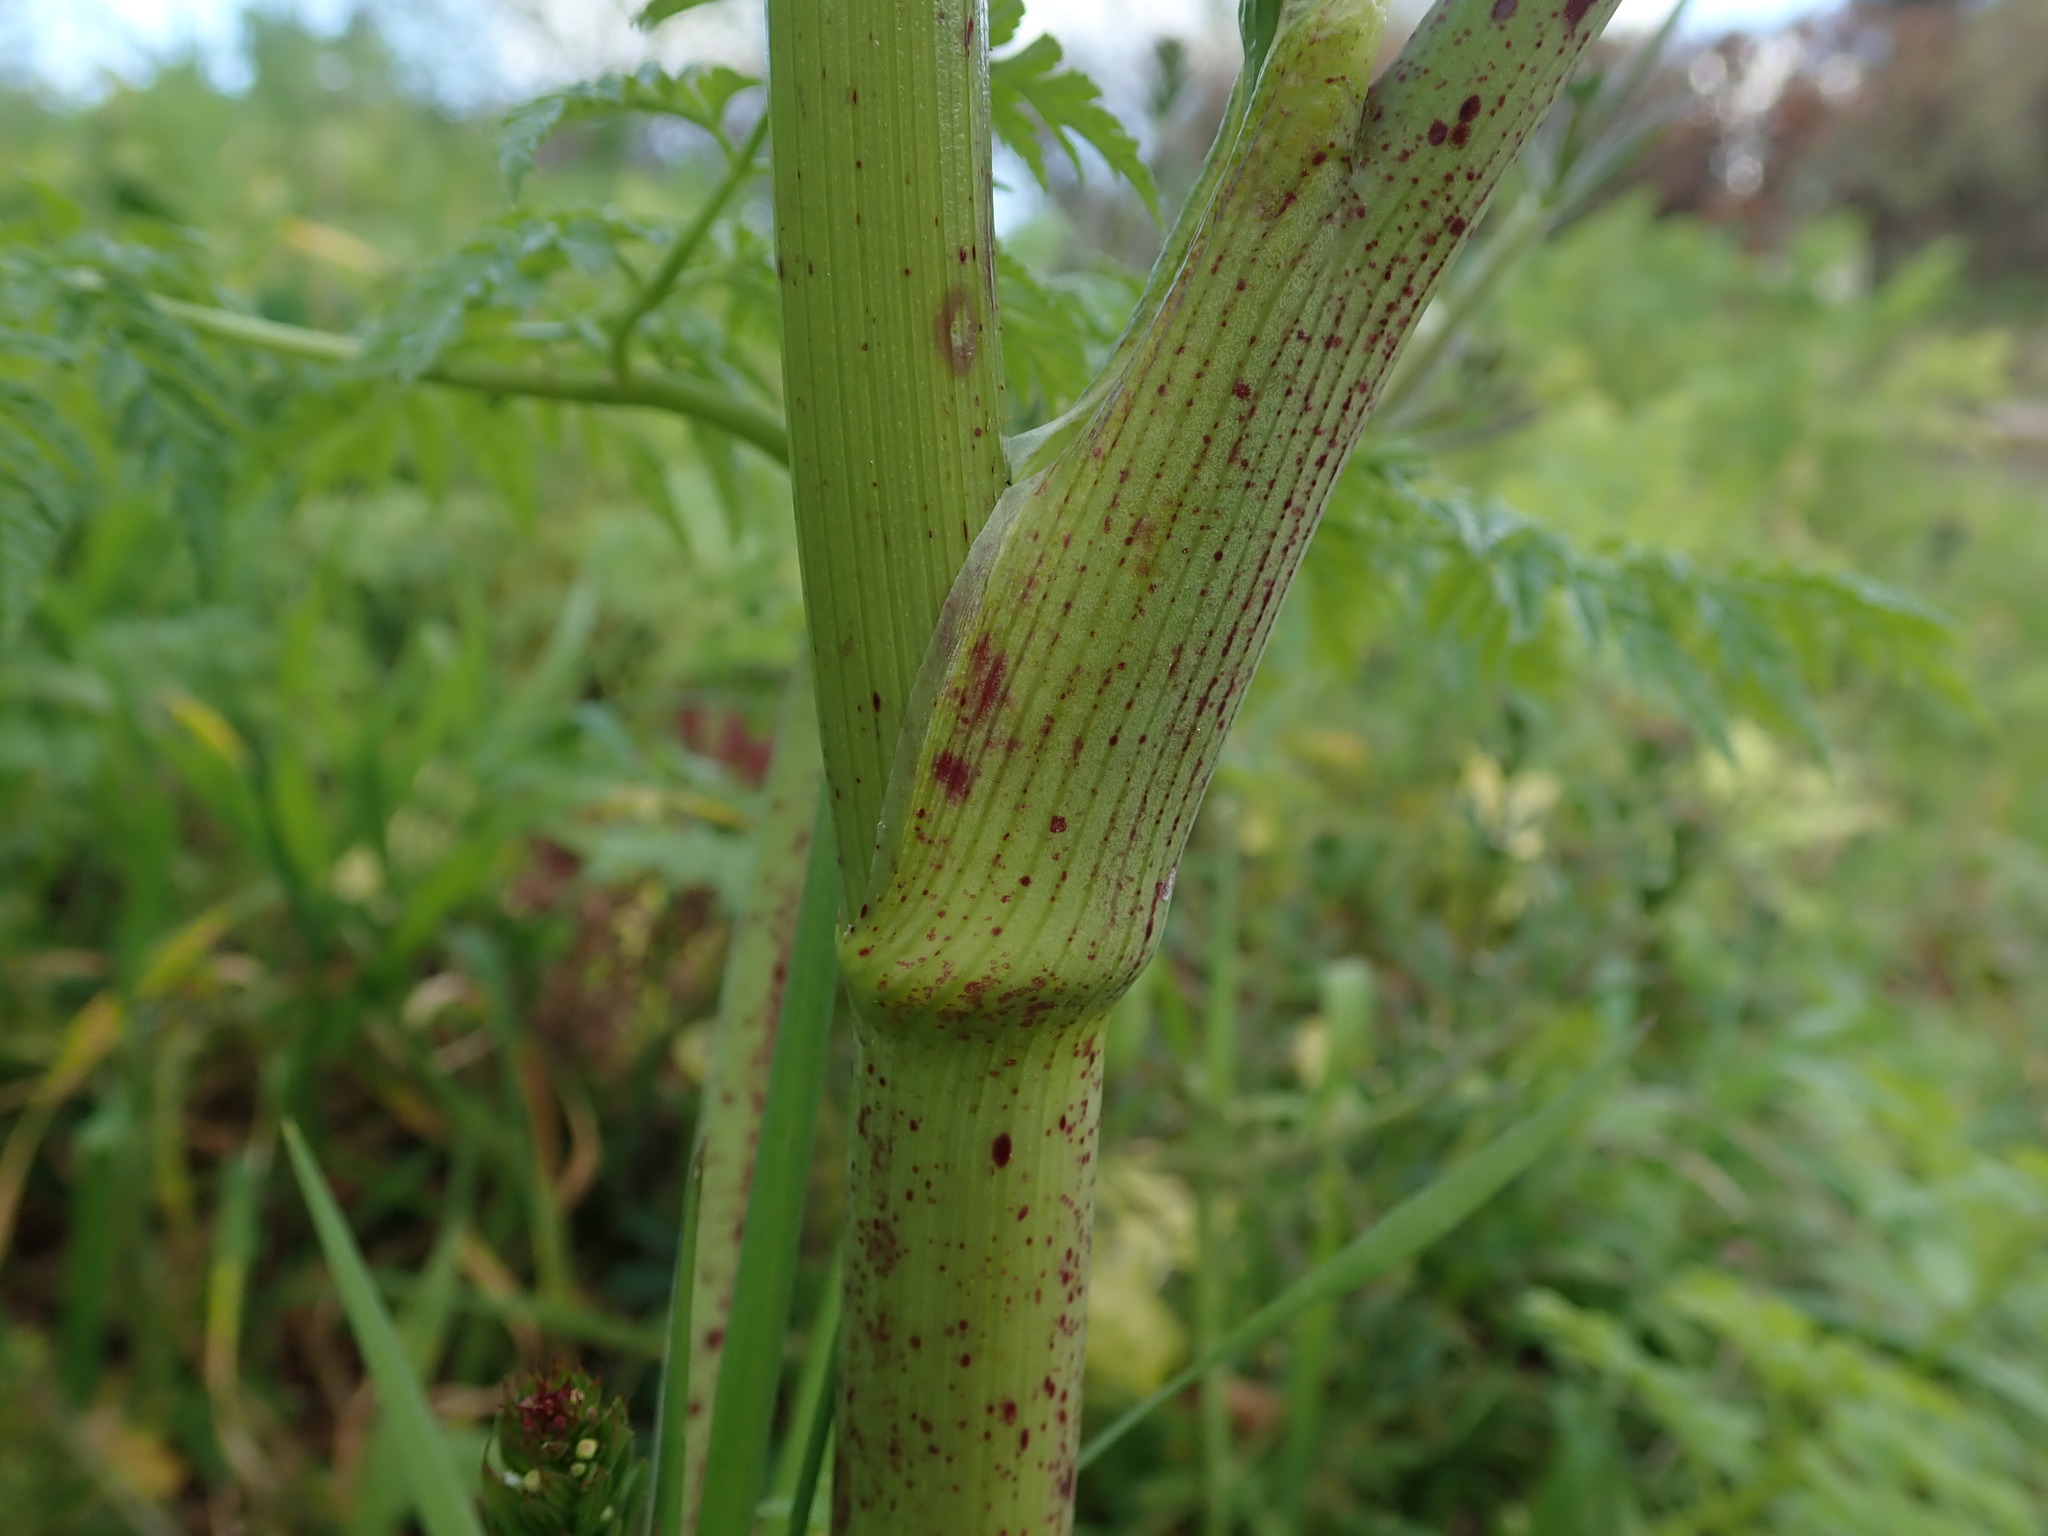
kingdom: Plantae
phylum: Tracheophyta
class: Magnoliopsida
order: Apiales
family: Apiaceae
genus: Conium
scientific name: Conium maculatum
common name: Hemlock
